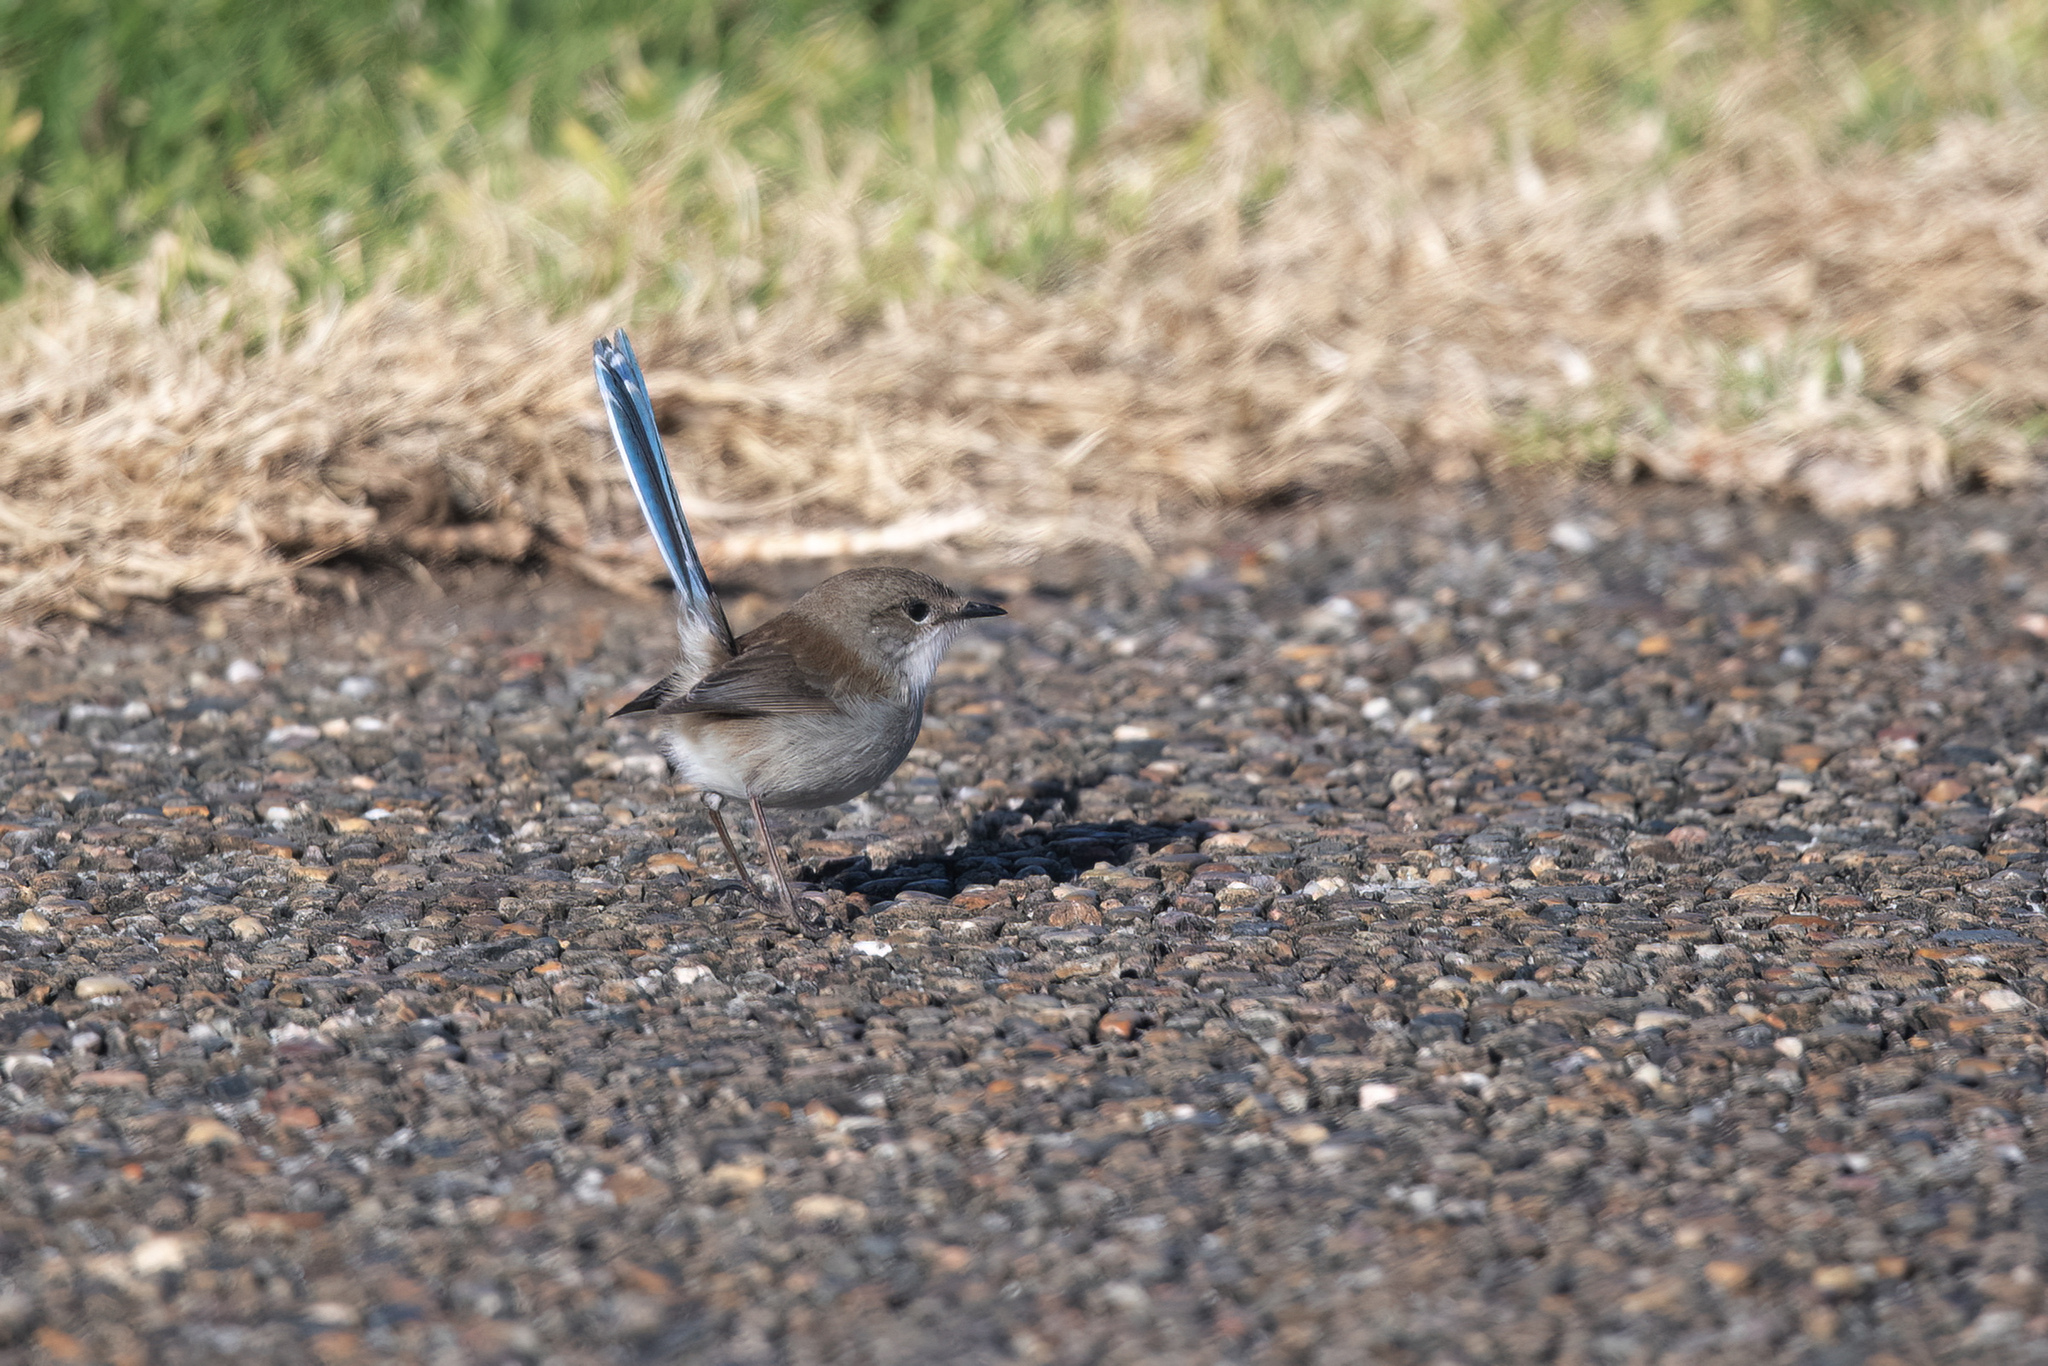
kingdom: Animalia
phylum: Chordata
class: Aves
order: Passeriformes
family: Maluridae
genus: Malurus
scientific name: Malurus cyaneus
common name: Superb fairywren
